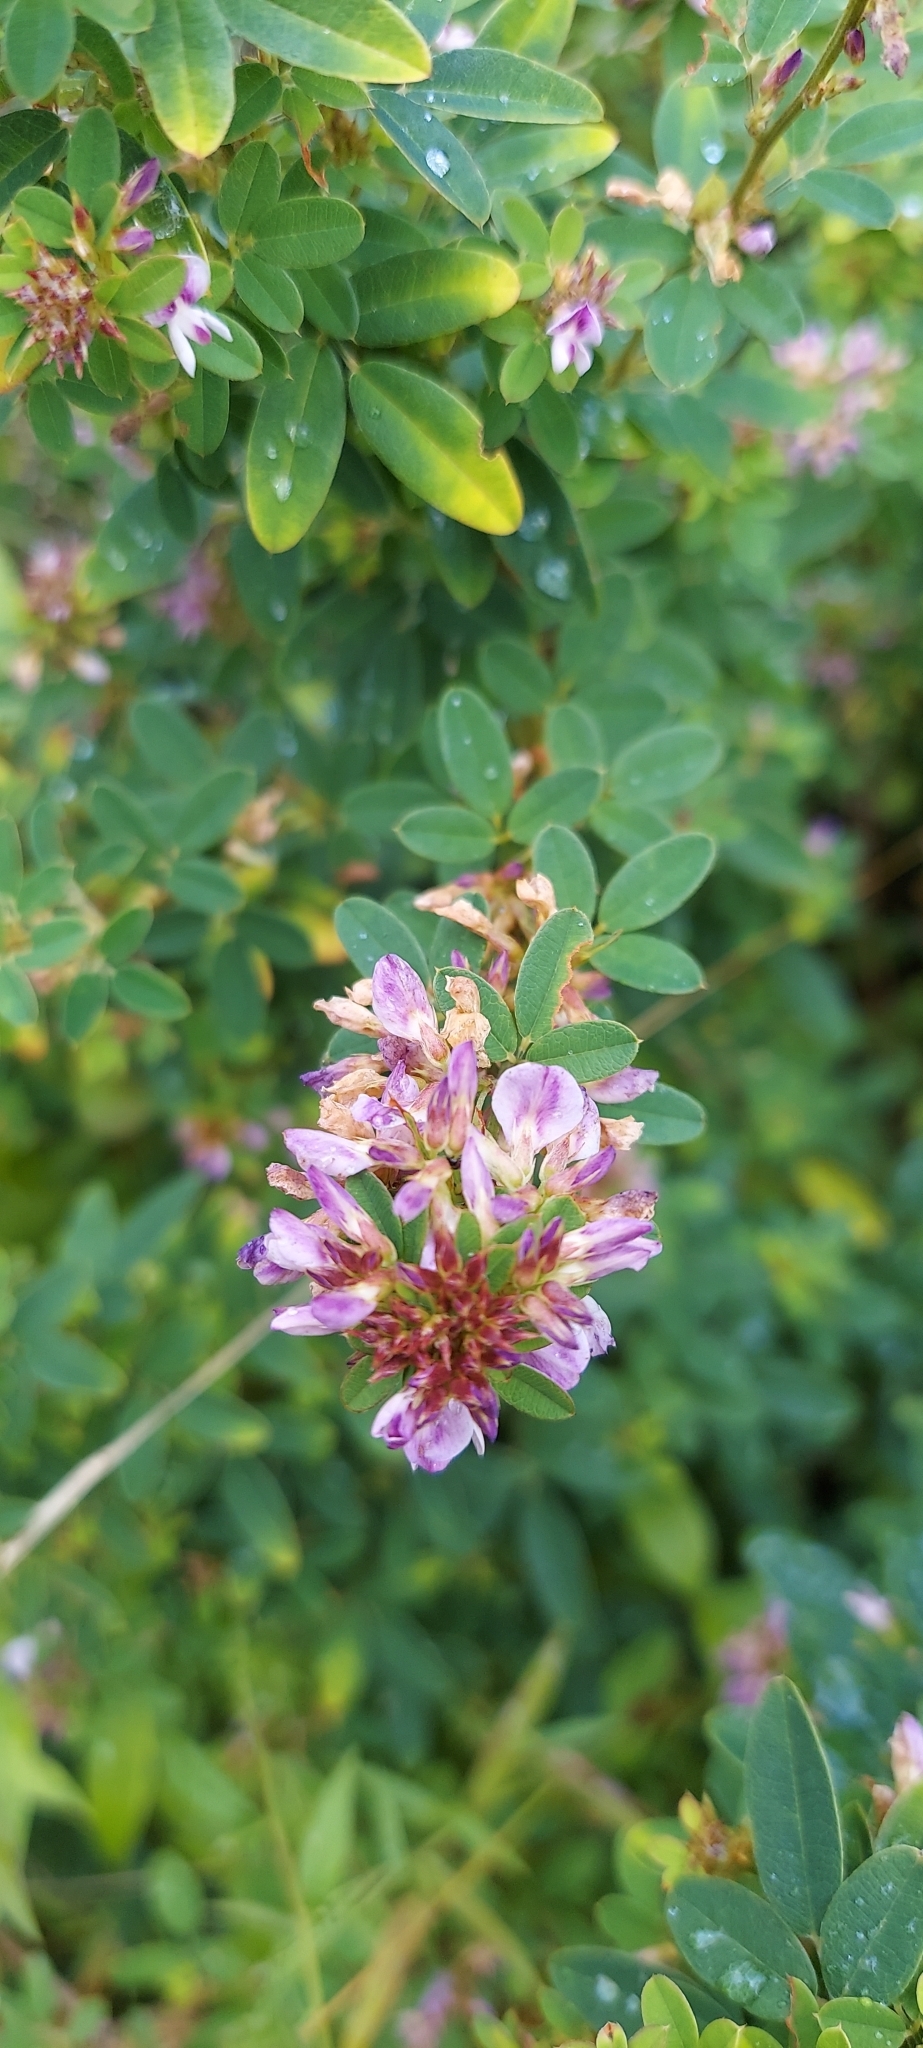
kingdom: Plantae
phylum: Tracheophyta
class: Magnoliopsida
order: Fabales
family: Fabaceae
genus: Lespedeza
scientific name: Lespedeza violacea
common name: Wand bush-clover
